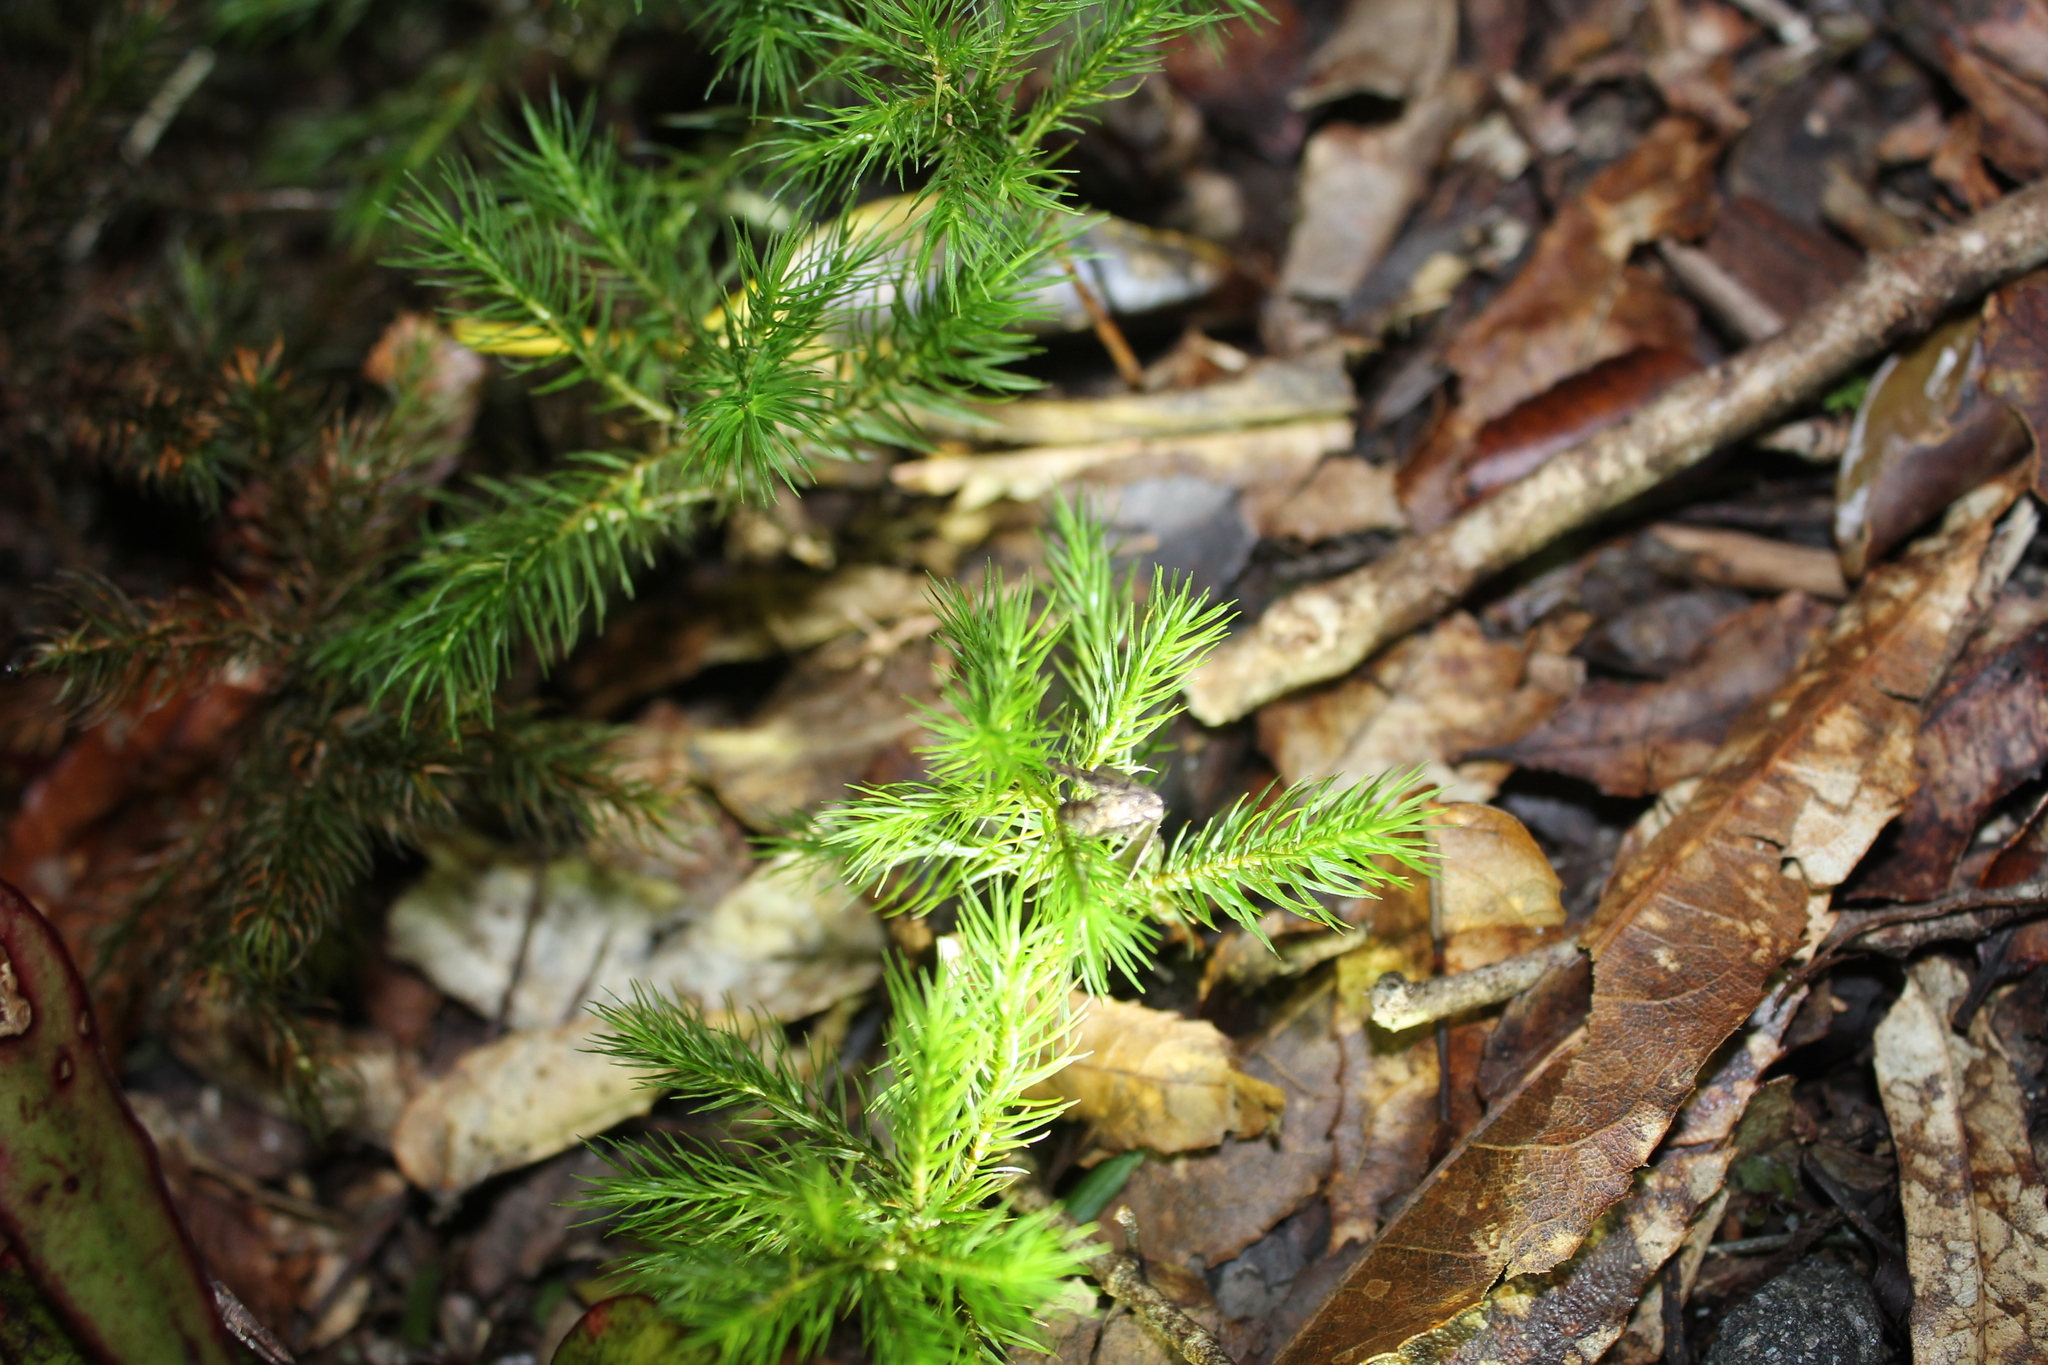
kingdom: Plantae
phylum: Bryophyta
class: Polytrichopsida
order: Polytrichales
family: Polytrichaceae
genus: Dendroligotrichum
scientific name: Dendroligotrichum tongariroense
